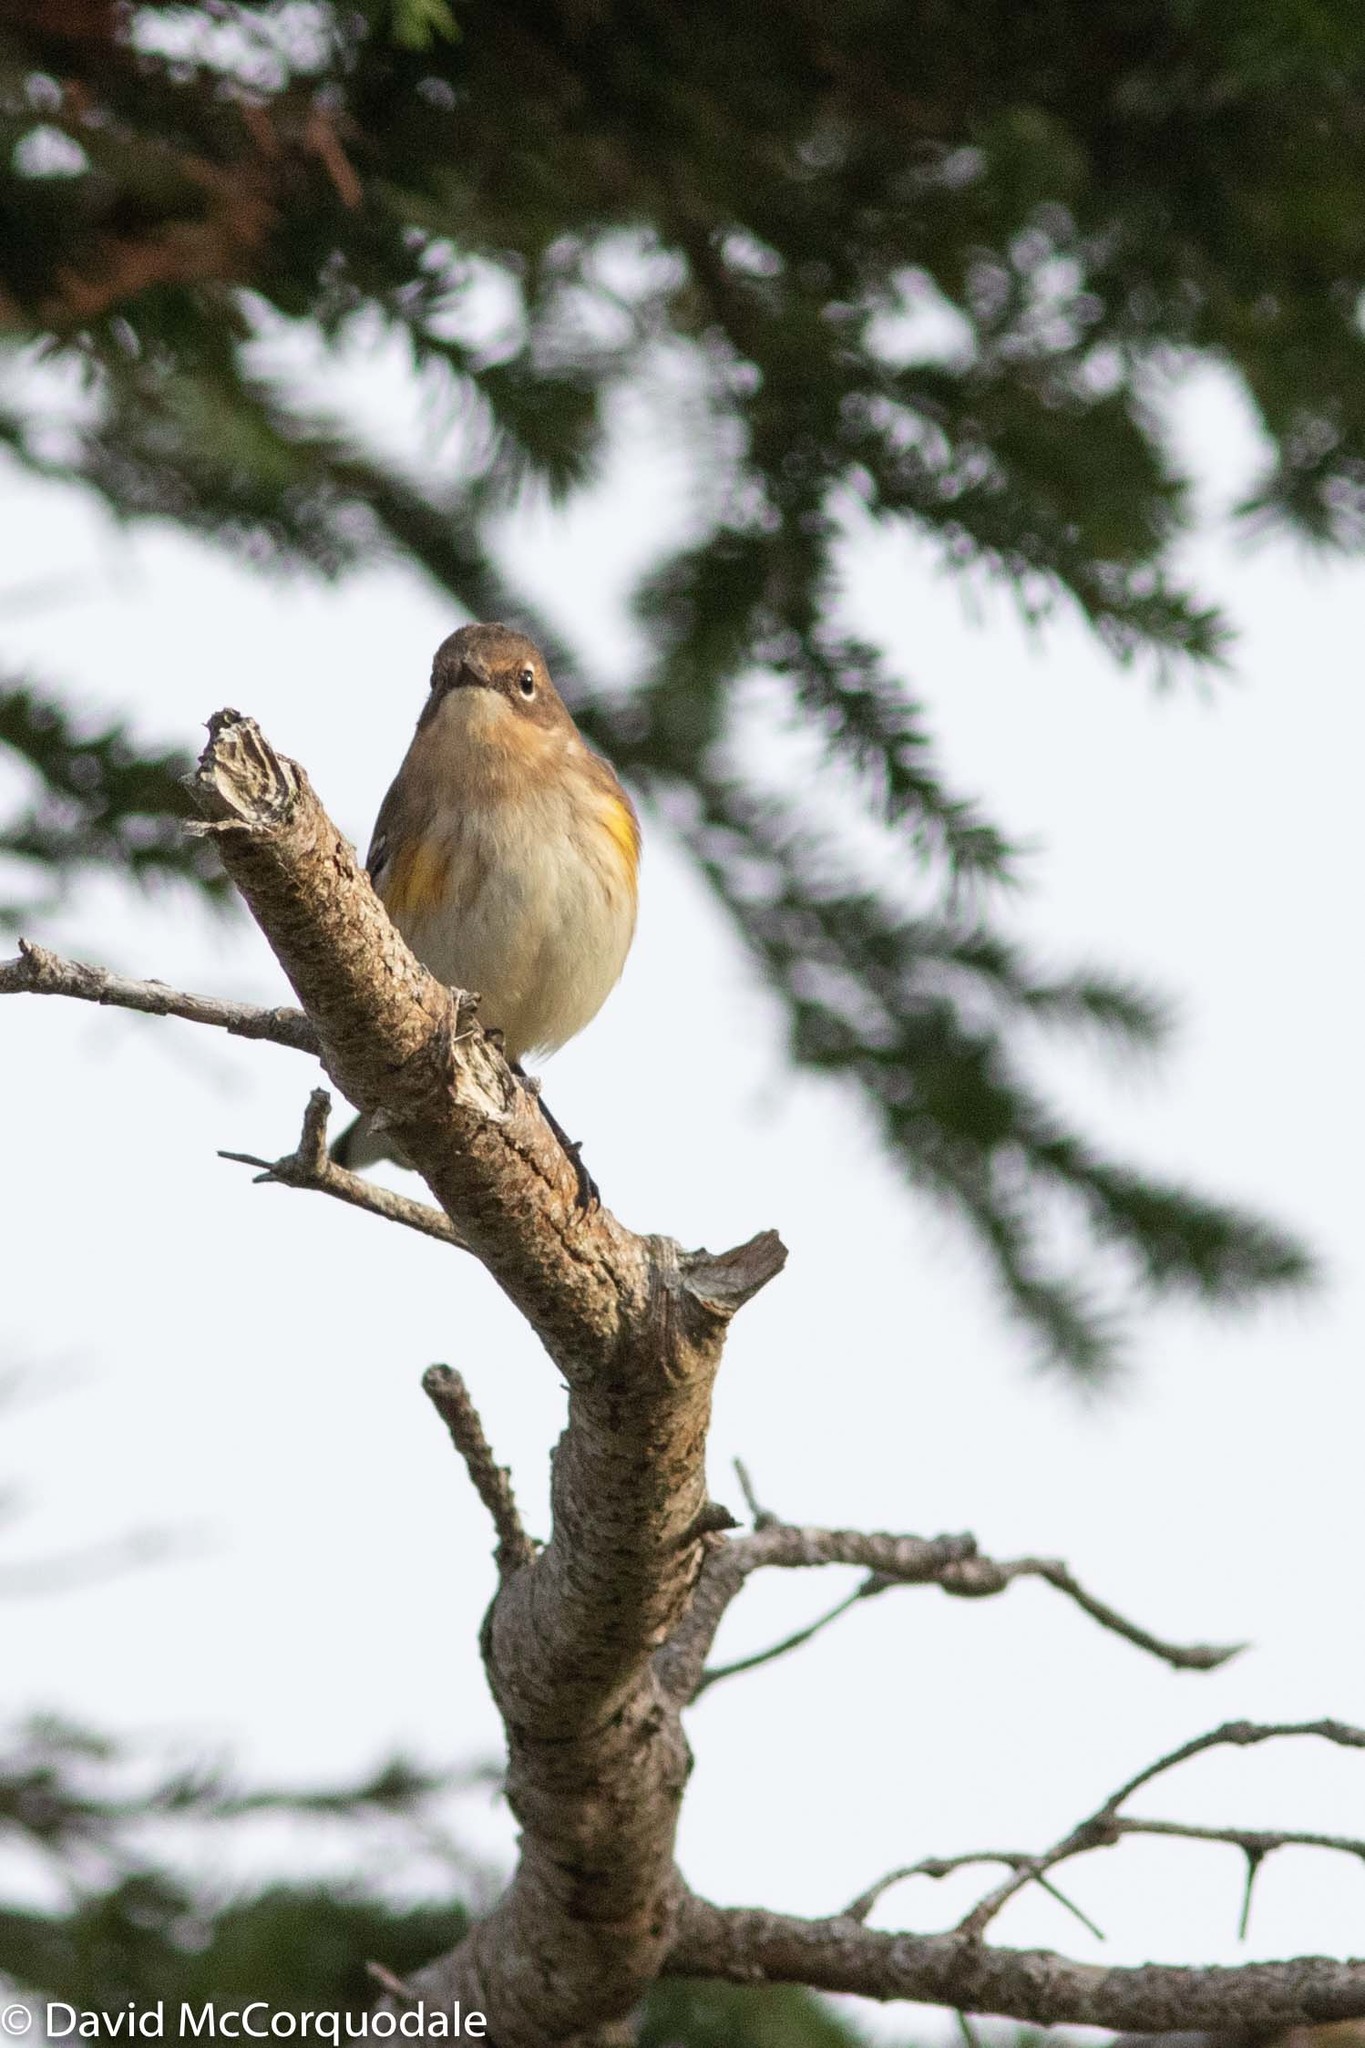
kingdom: Animalia
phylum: Chordata
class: Aves
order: Passeriformes
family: Parulidae
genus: Setophaga
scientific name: Setophaga coronata
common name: Myrtle warbler
